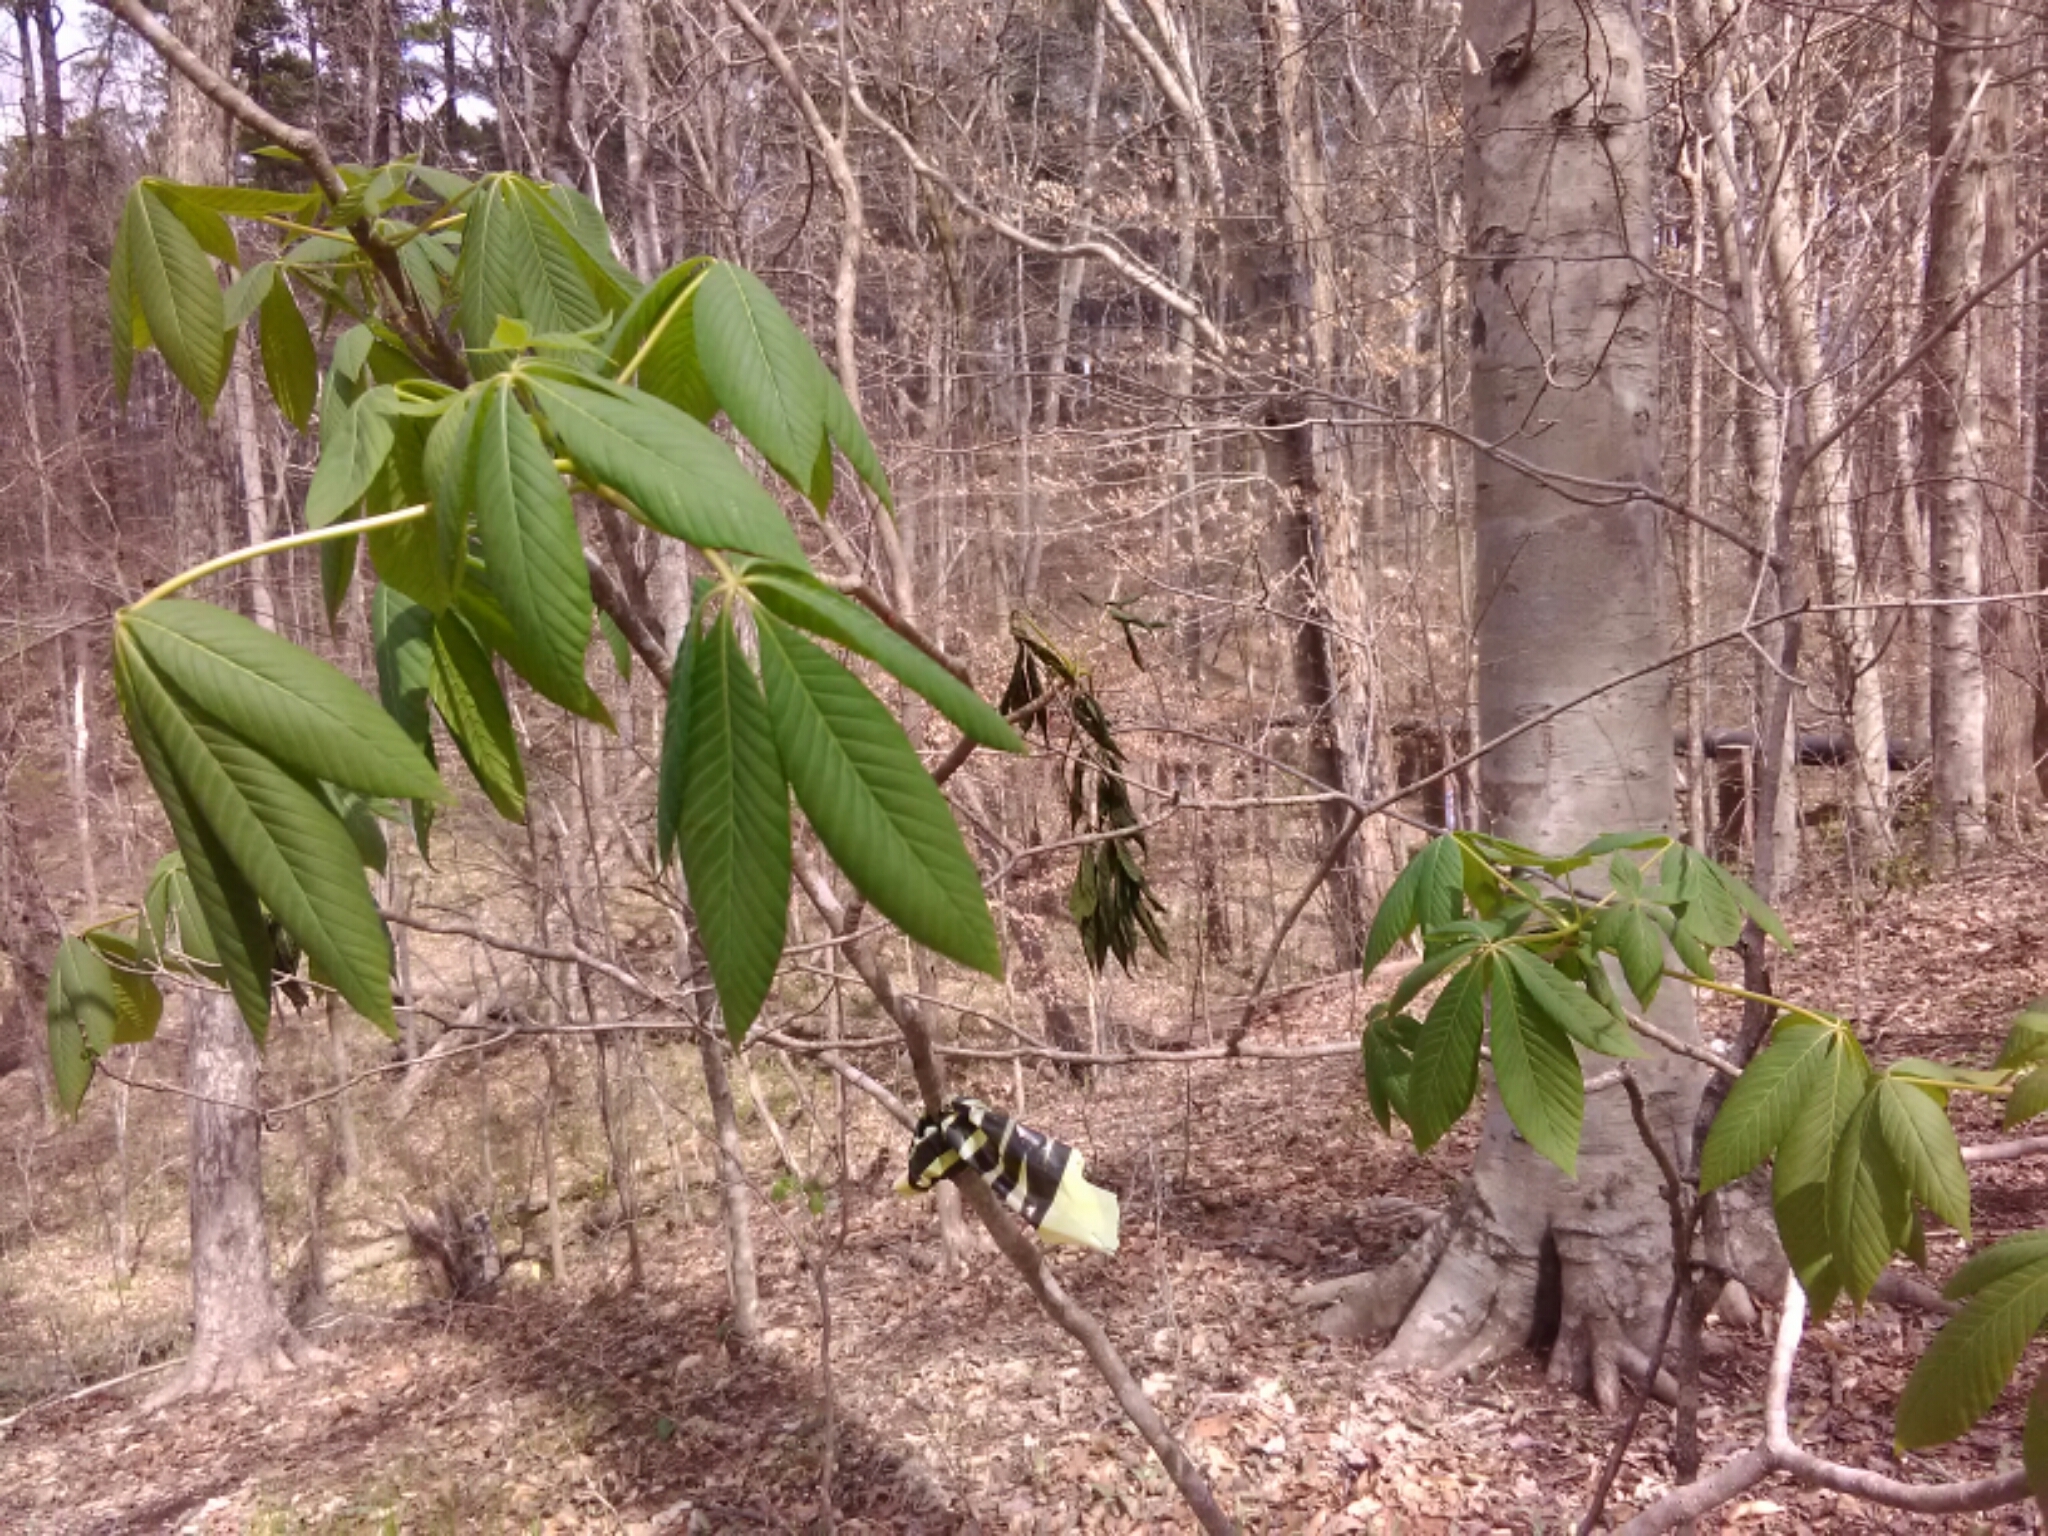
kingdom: Plantae
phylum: Tracheophyta
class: Magnoliopsida
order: Sapindales
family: Sapindaceae
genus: Aesculus
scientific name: Aesculus sylvatica
